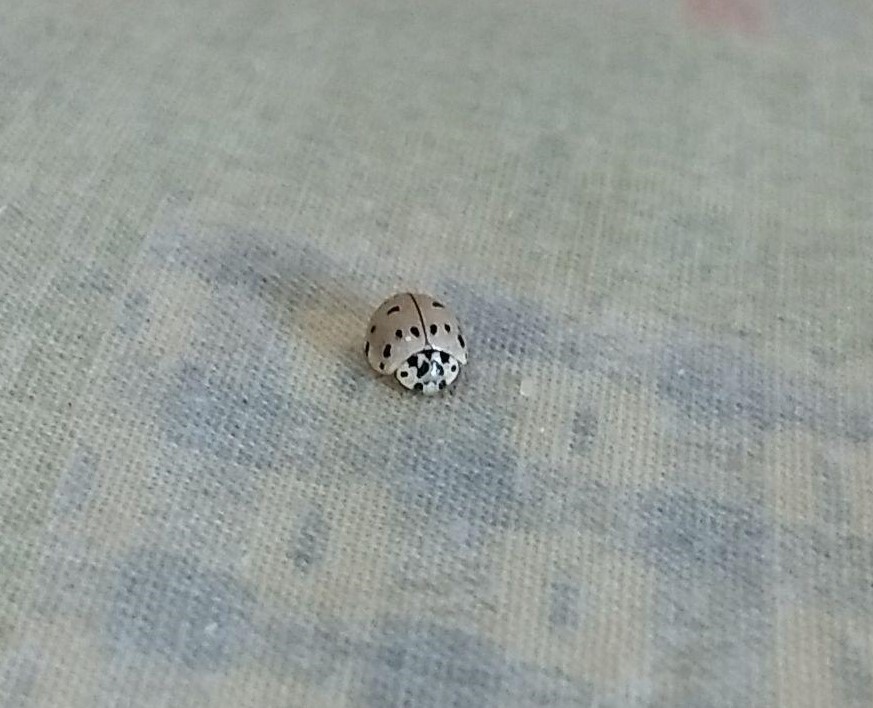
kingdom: Animalia
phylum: Arthropoda
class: Insecta
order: Coleoptera
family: Coccinellidae
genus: Olla
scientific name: Olla v-nigrum
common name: Ashy gray lady beetle
